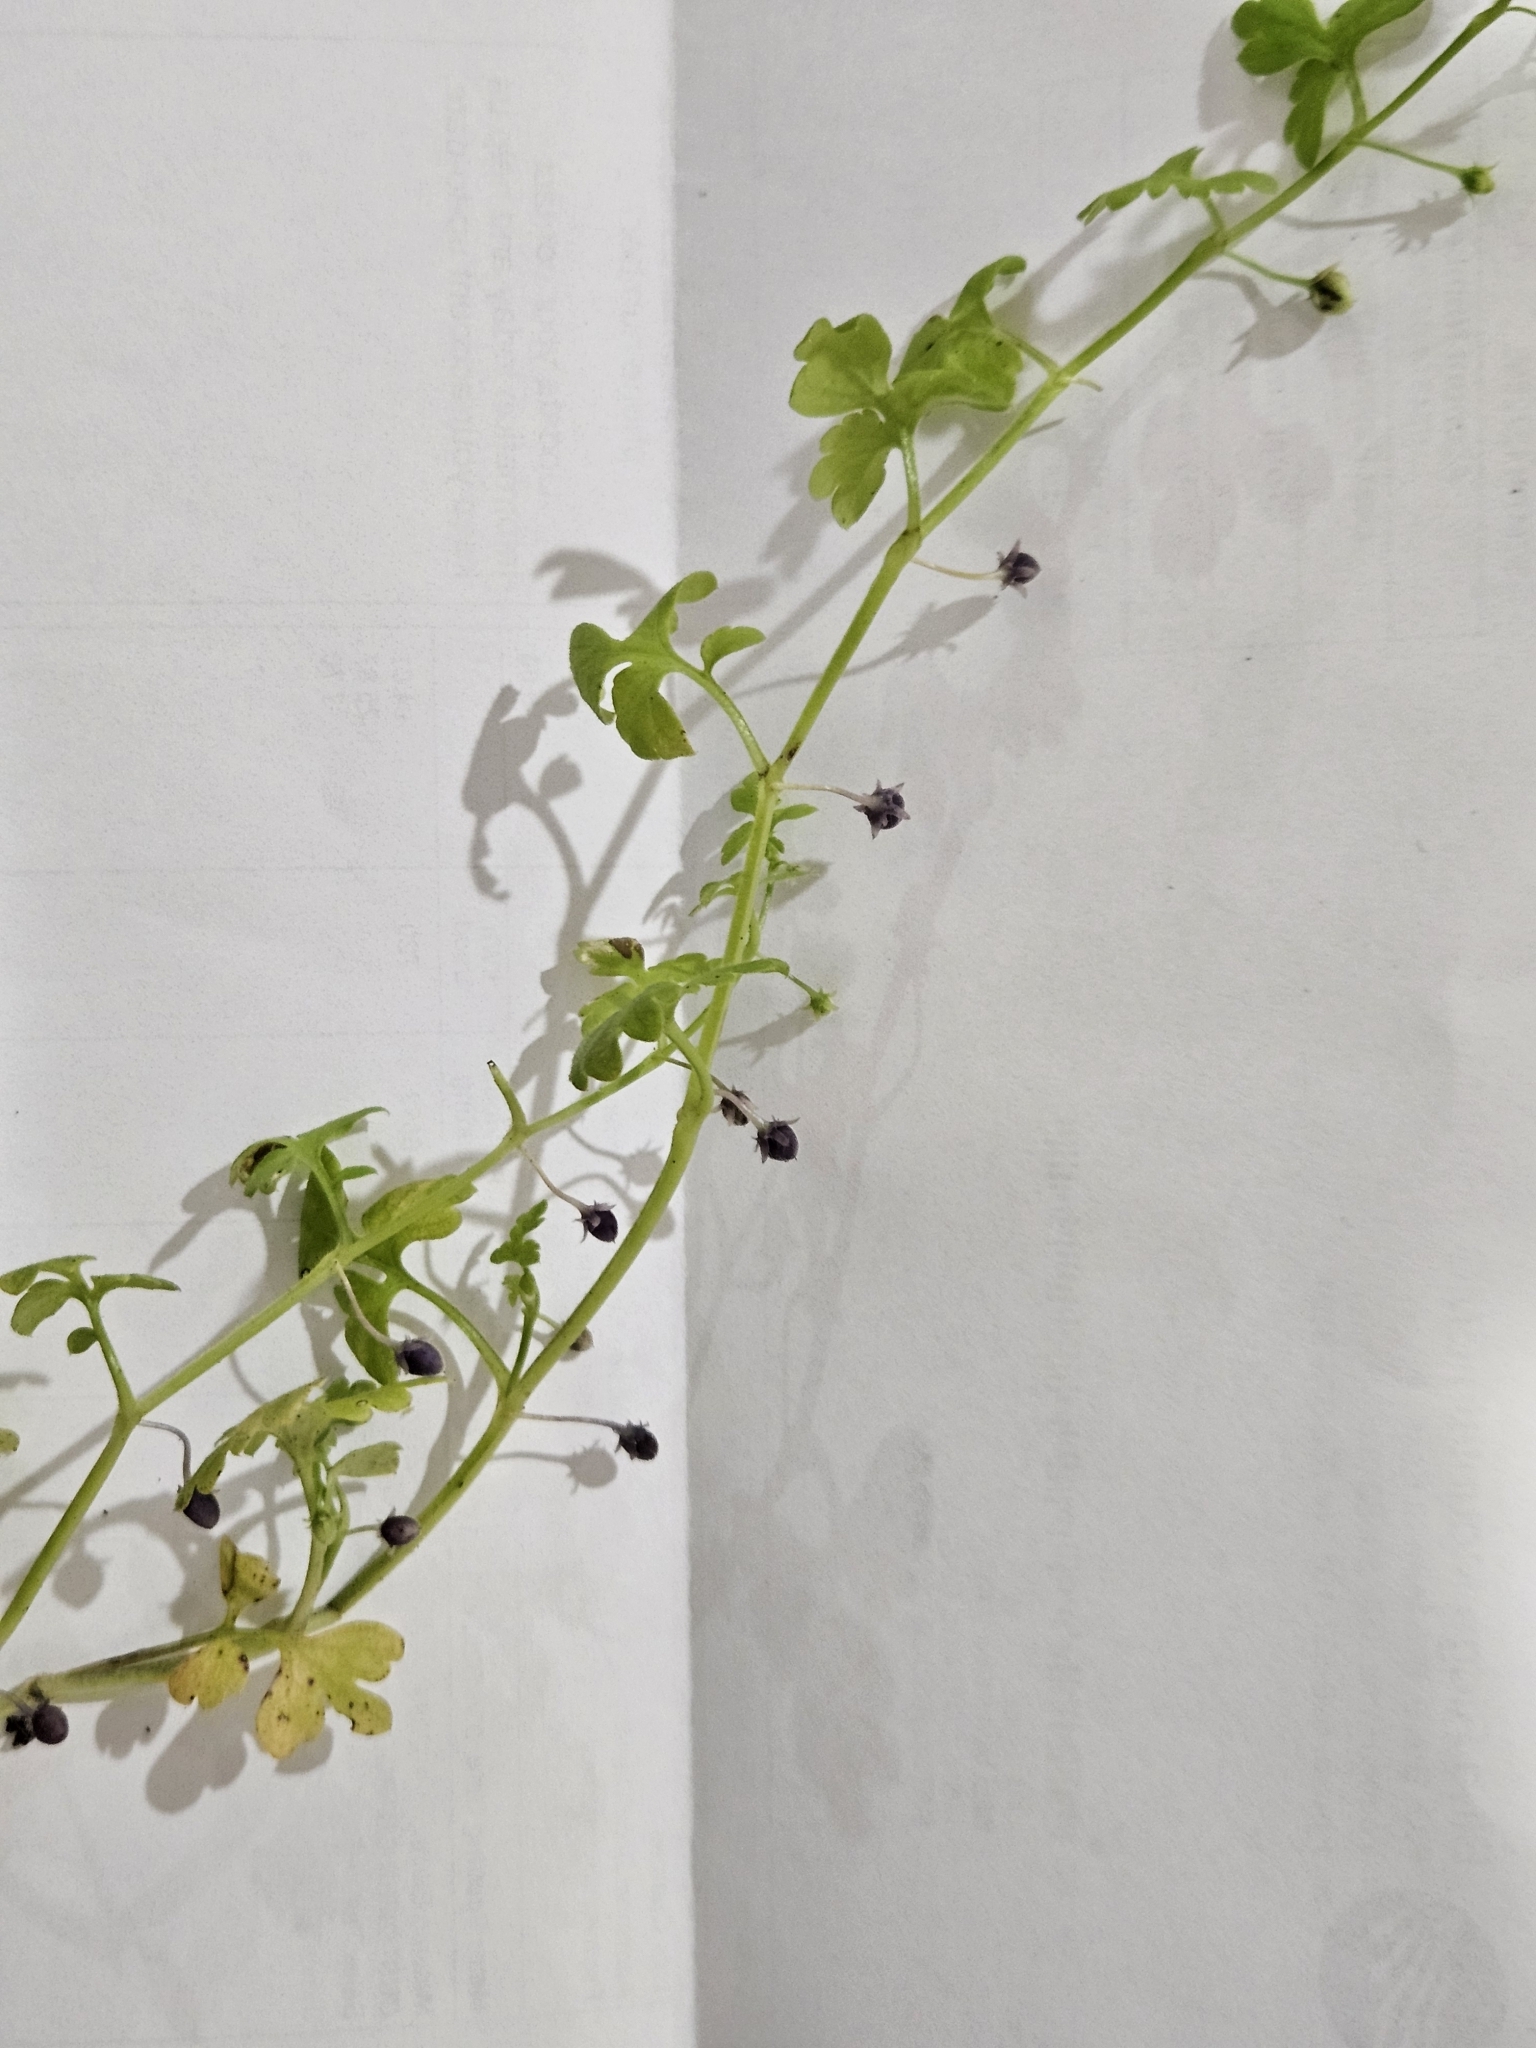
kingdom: Plantae
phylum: Tracheophyta
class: Magnoliopsida
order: Boraginales
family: Hydrophyllaceae
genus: Nemophila
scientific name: Nemophila aphylla
